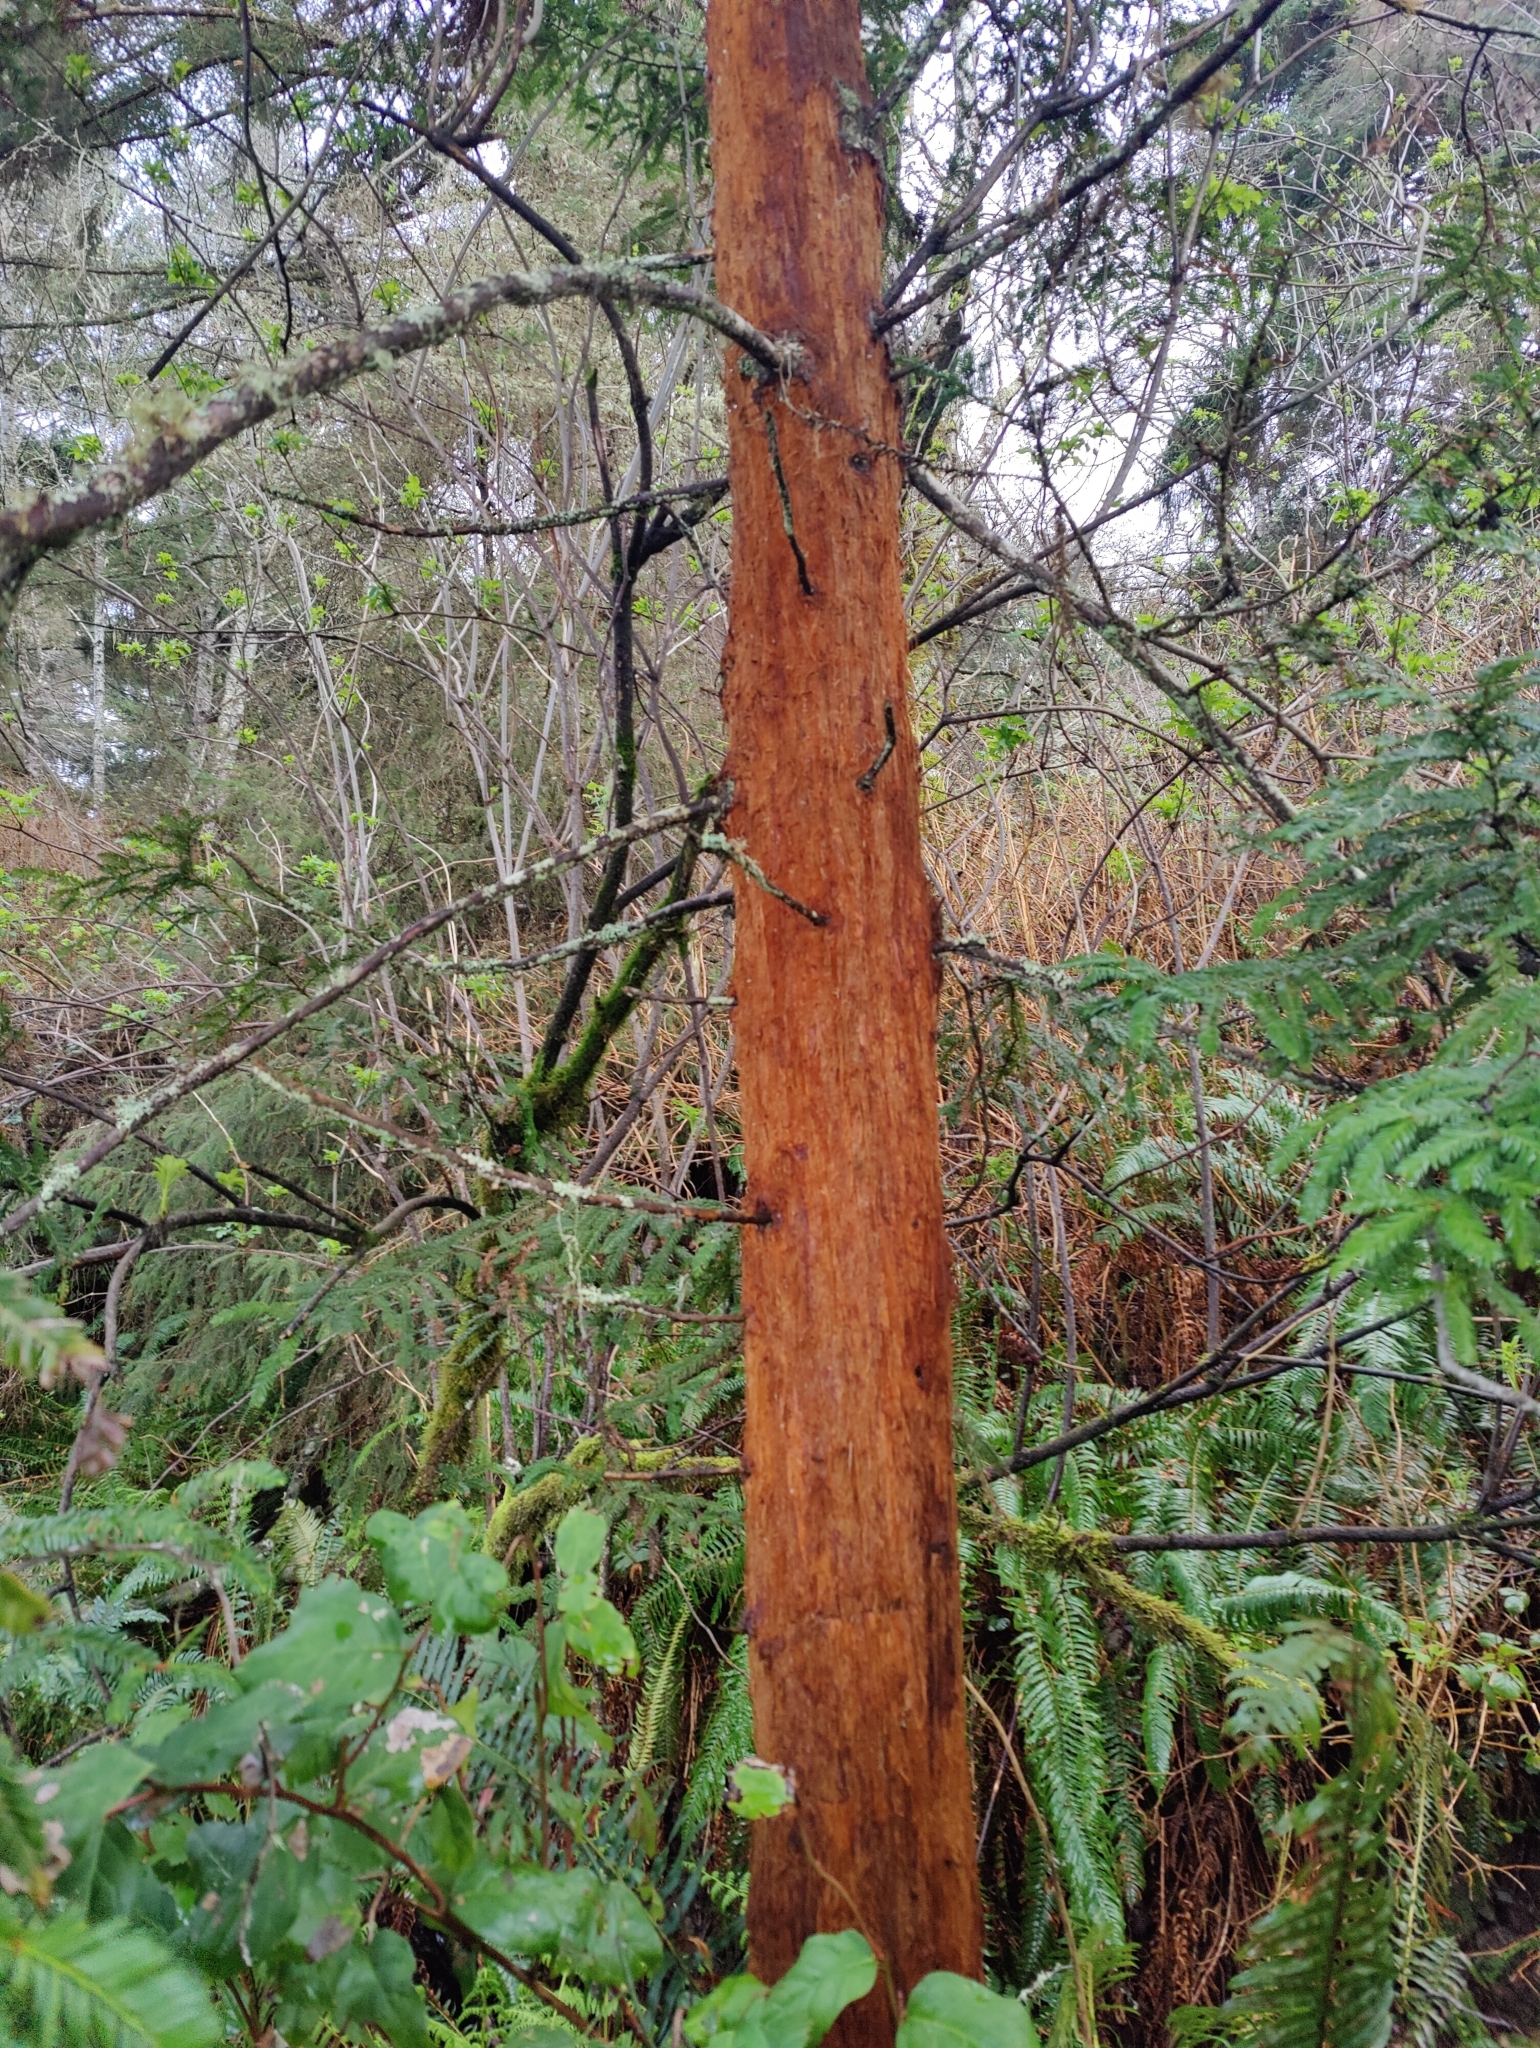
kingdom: Plantae
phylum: Tracheophyta
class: Pinopsida
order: Pinales
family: Cupressaceae
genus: Sequoia
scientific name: Sequoia sempervirens
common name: Coast redwood
